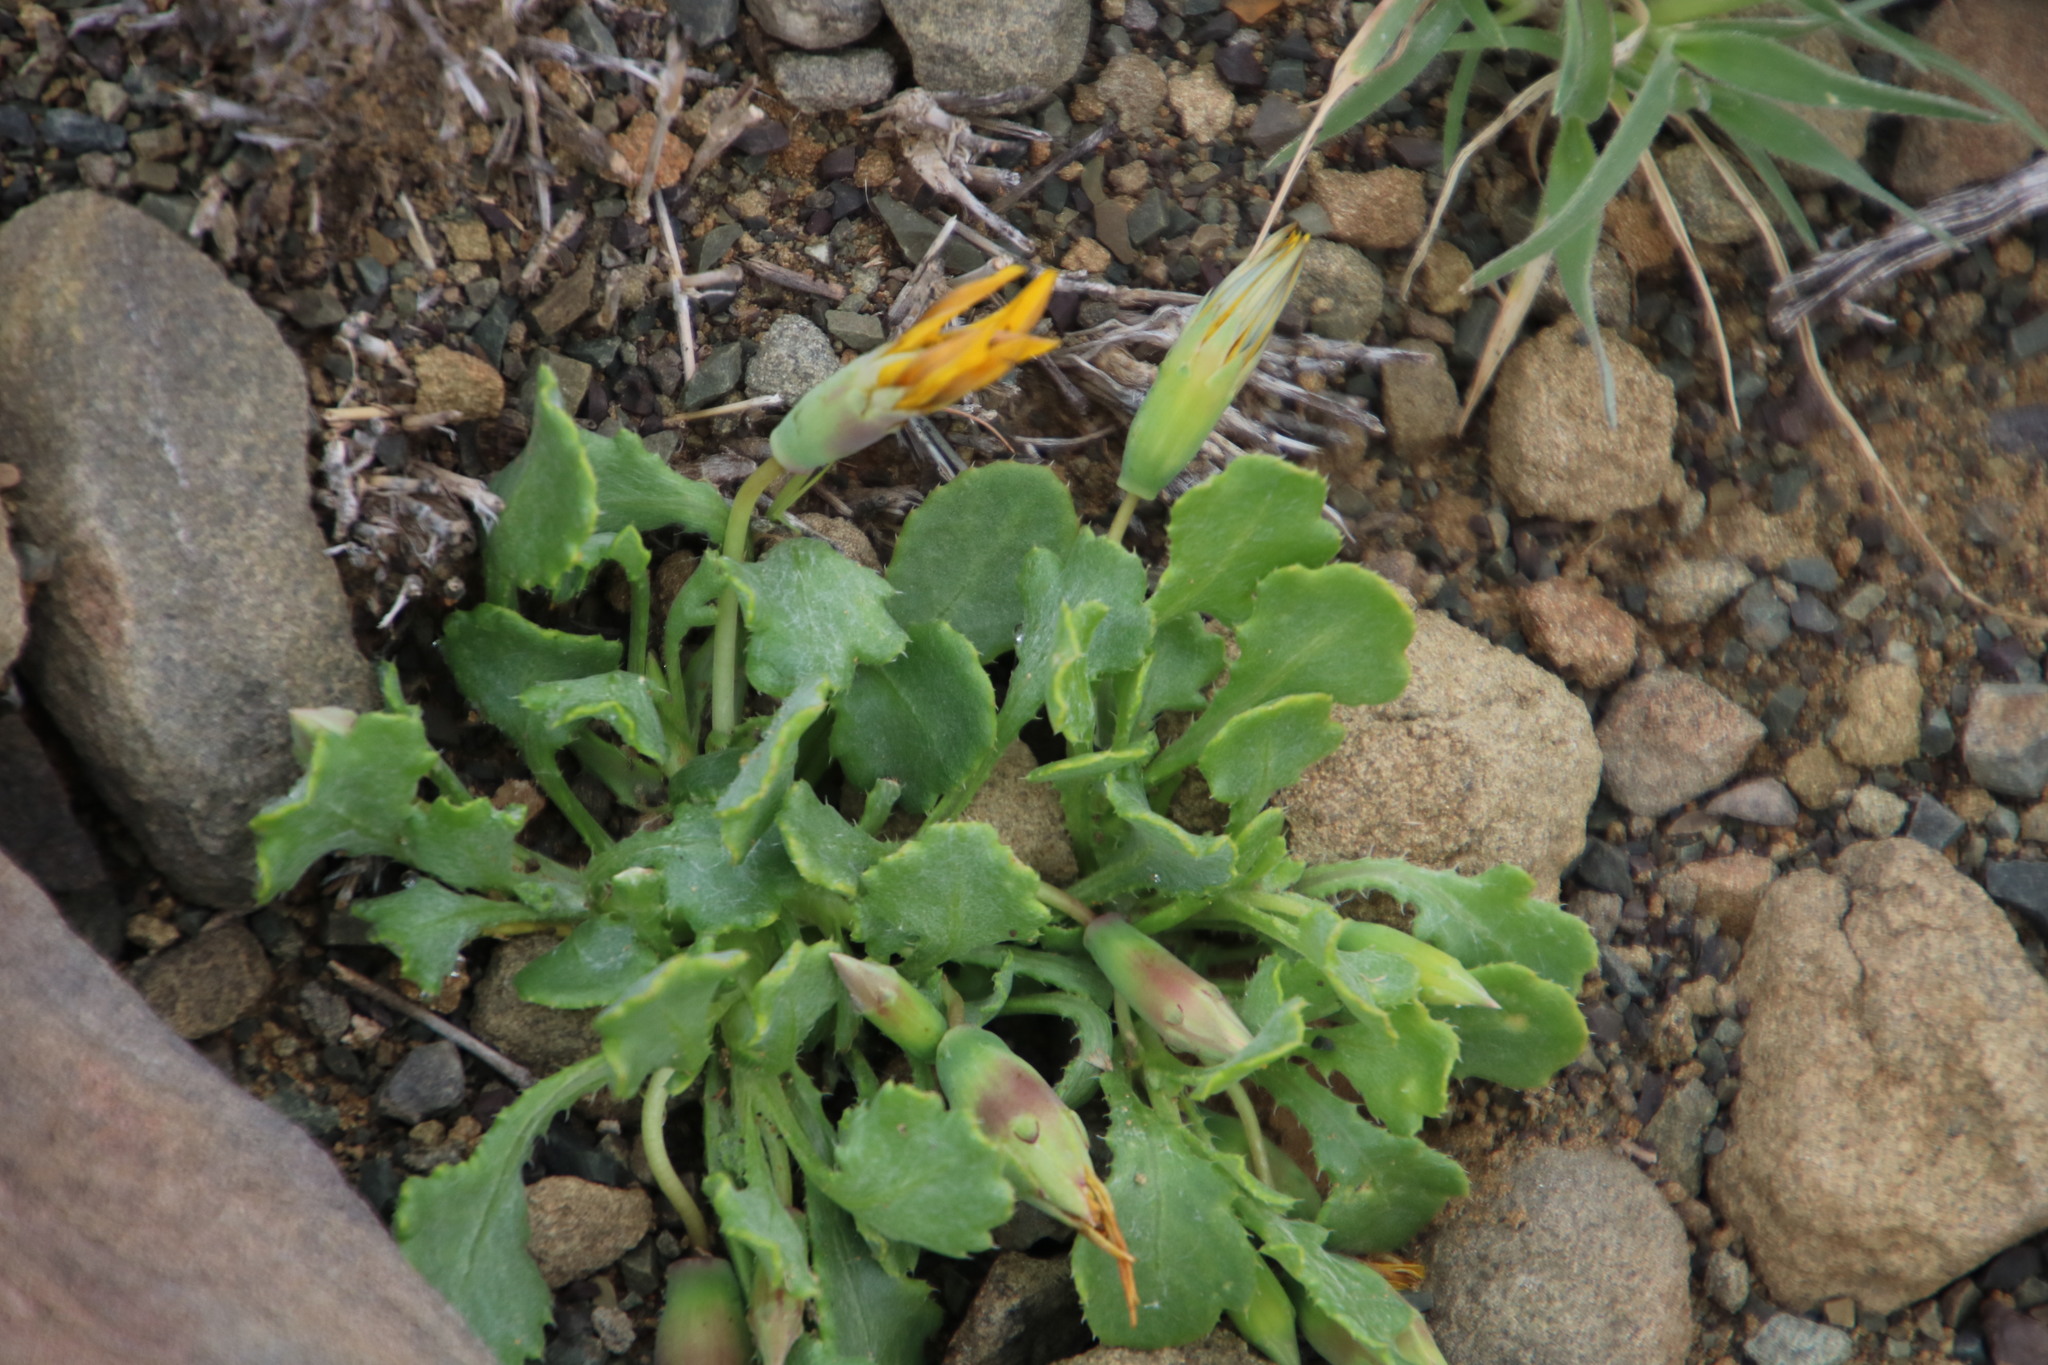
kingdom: Plantae
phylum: Tracheophyta
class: Magnoliopsida
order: Asterales
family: Asteraceae
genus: Gazania
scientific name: Gazania lichtensteinii
